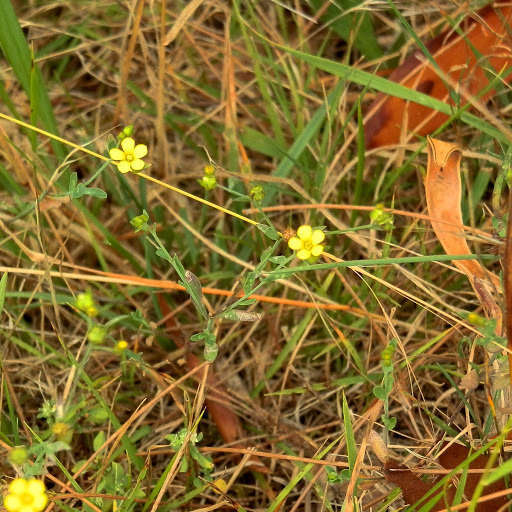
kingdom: Plantae
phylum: Tracheophyta
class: Magnoliopsida
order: Malpighiales
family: Linaceae
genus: Linum
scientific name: Linum trigynum
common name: French flax
